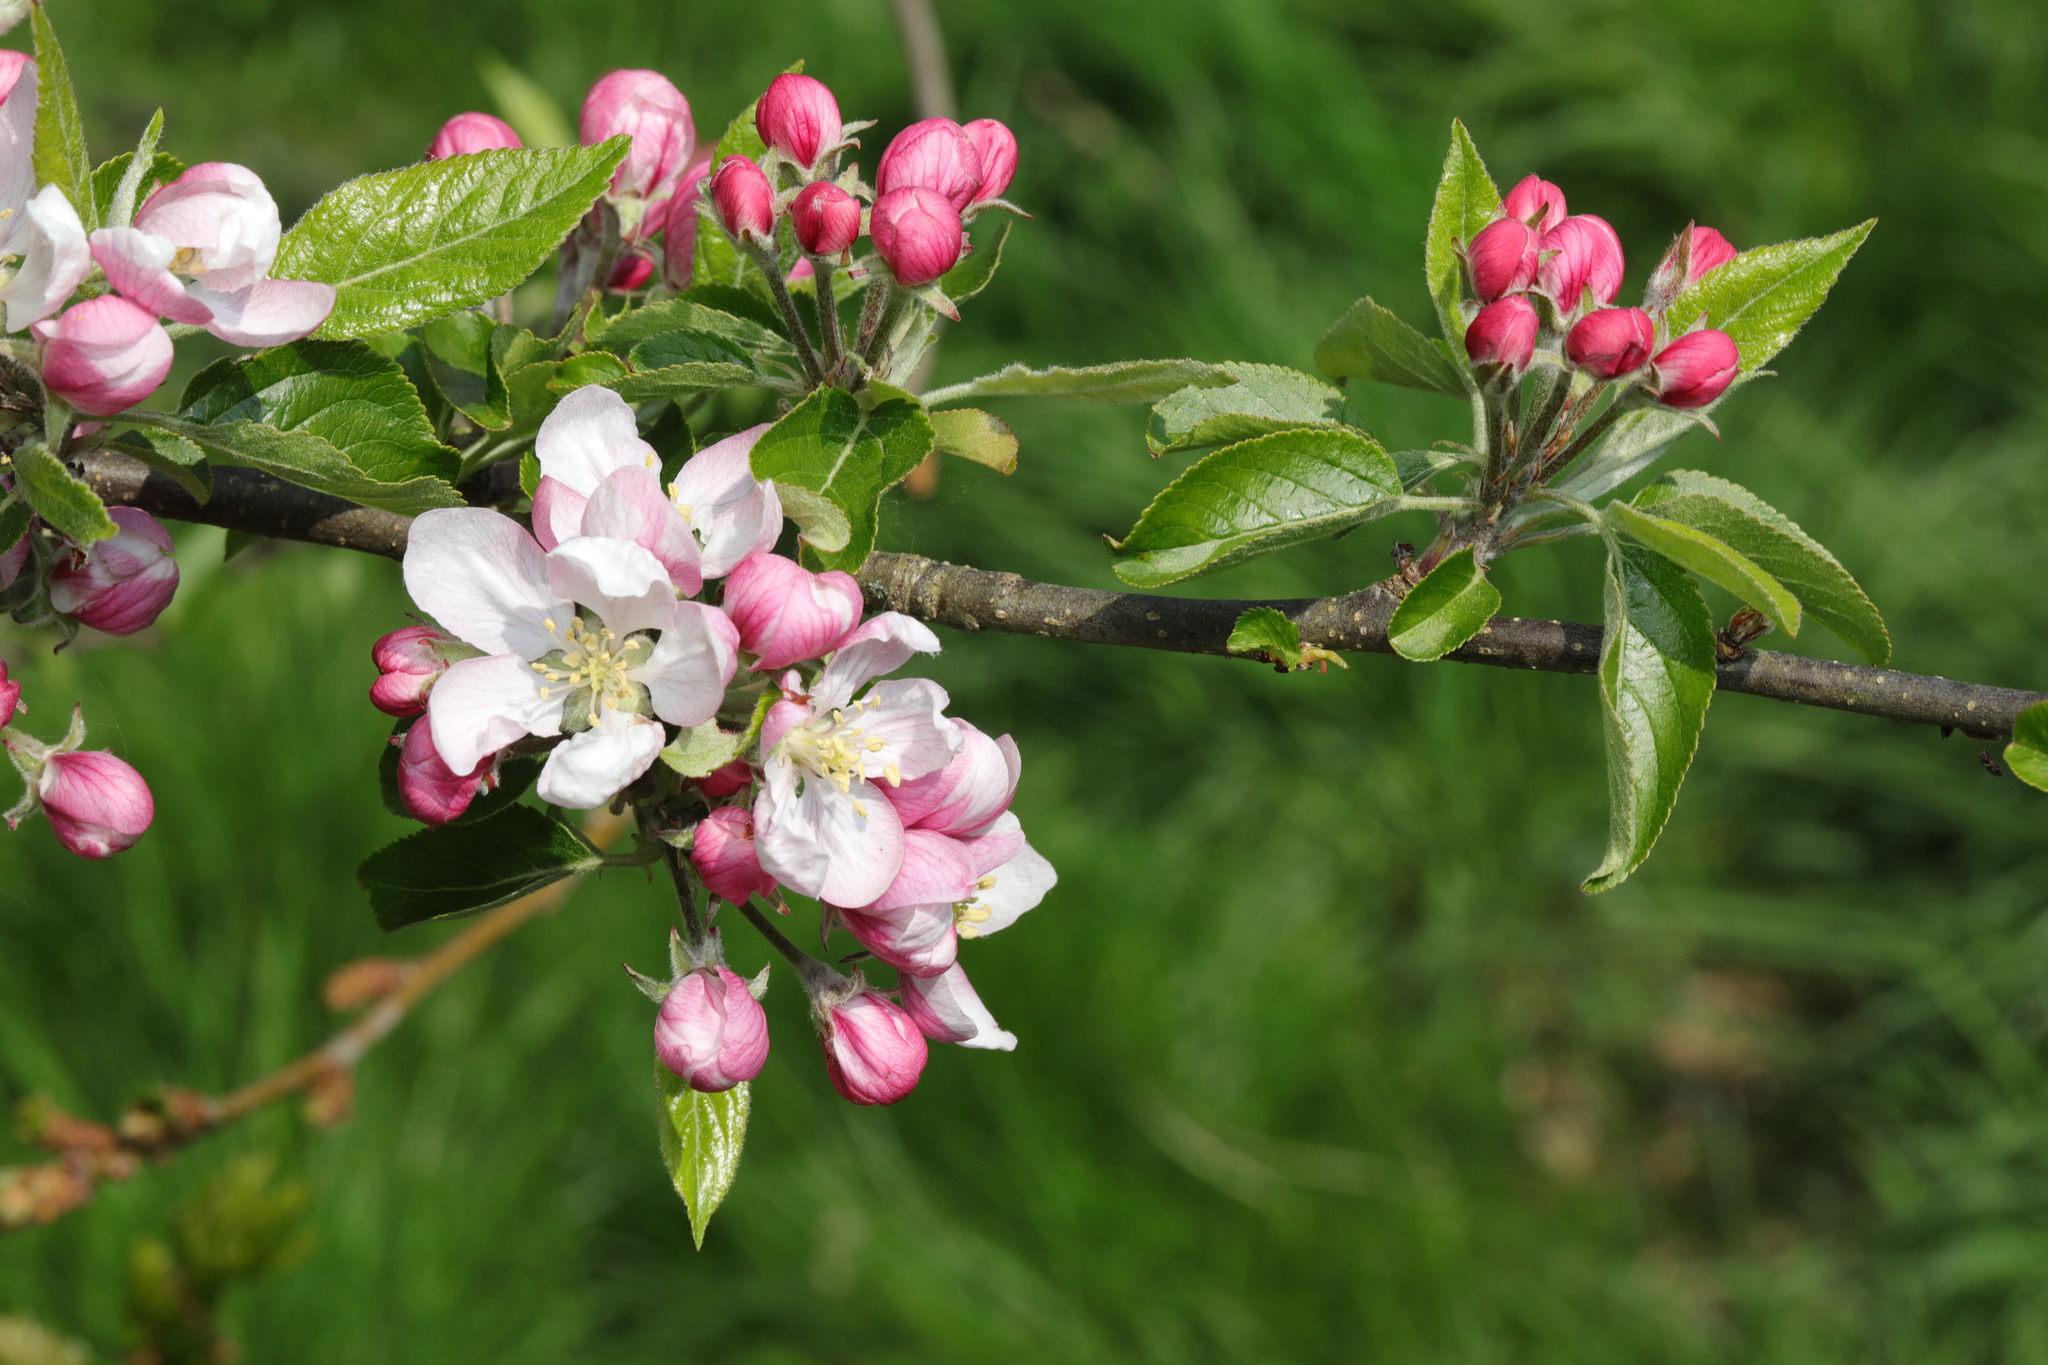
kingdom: Plantae
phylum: Tracheophyta
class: Magnoliopsida
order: Rosales
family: Rosaceae
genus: Malus
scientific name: Malus domestica
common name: Apple
